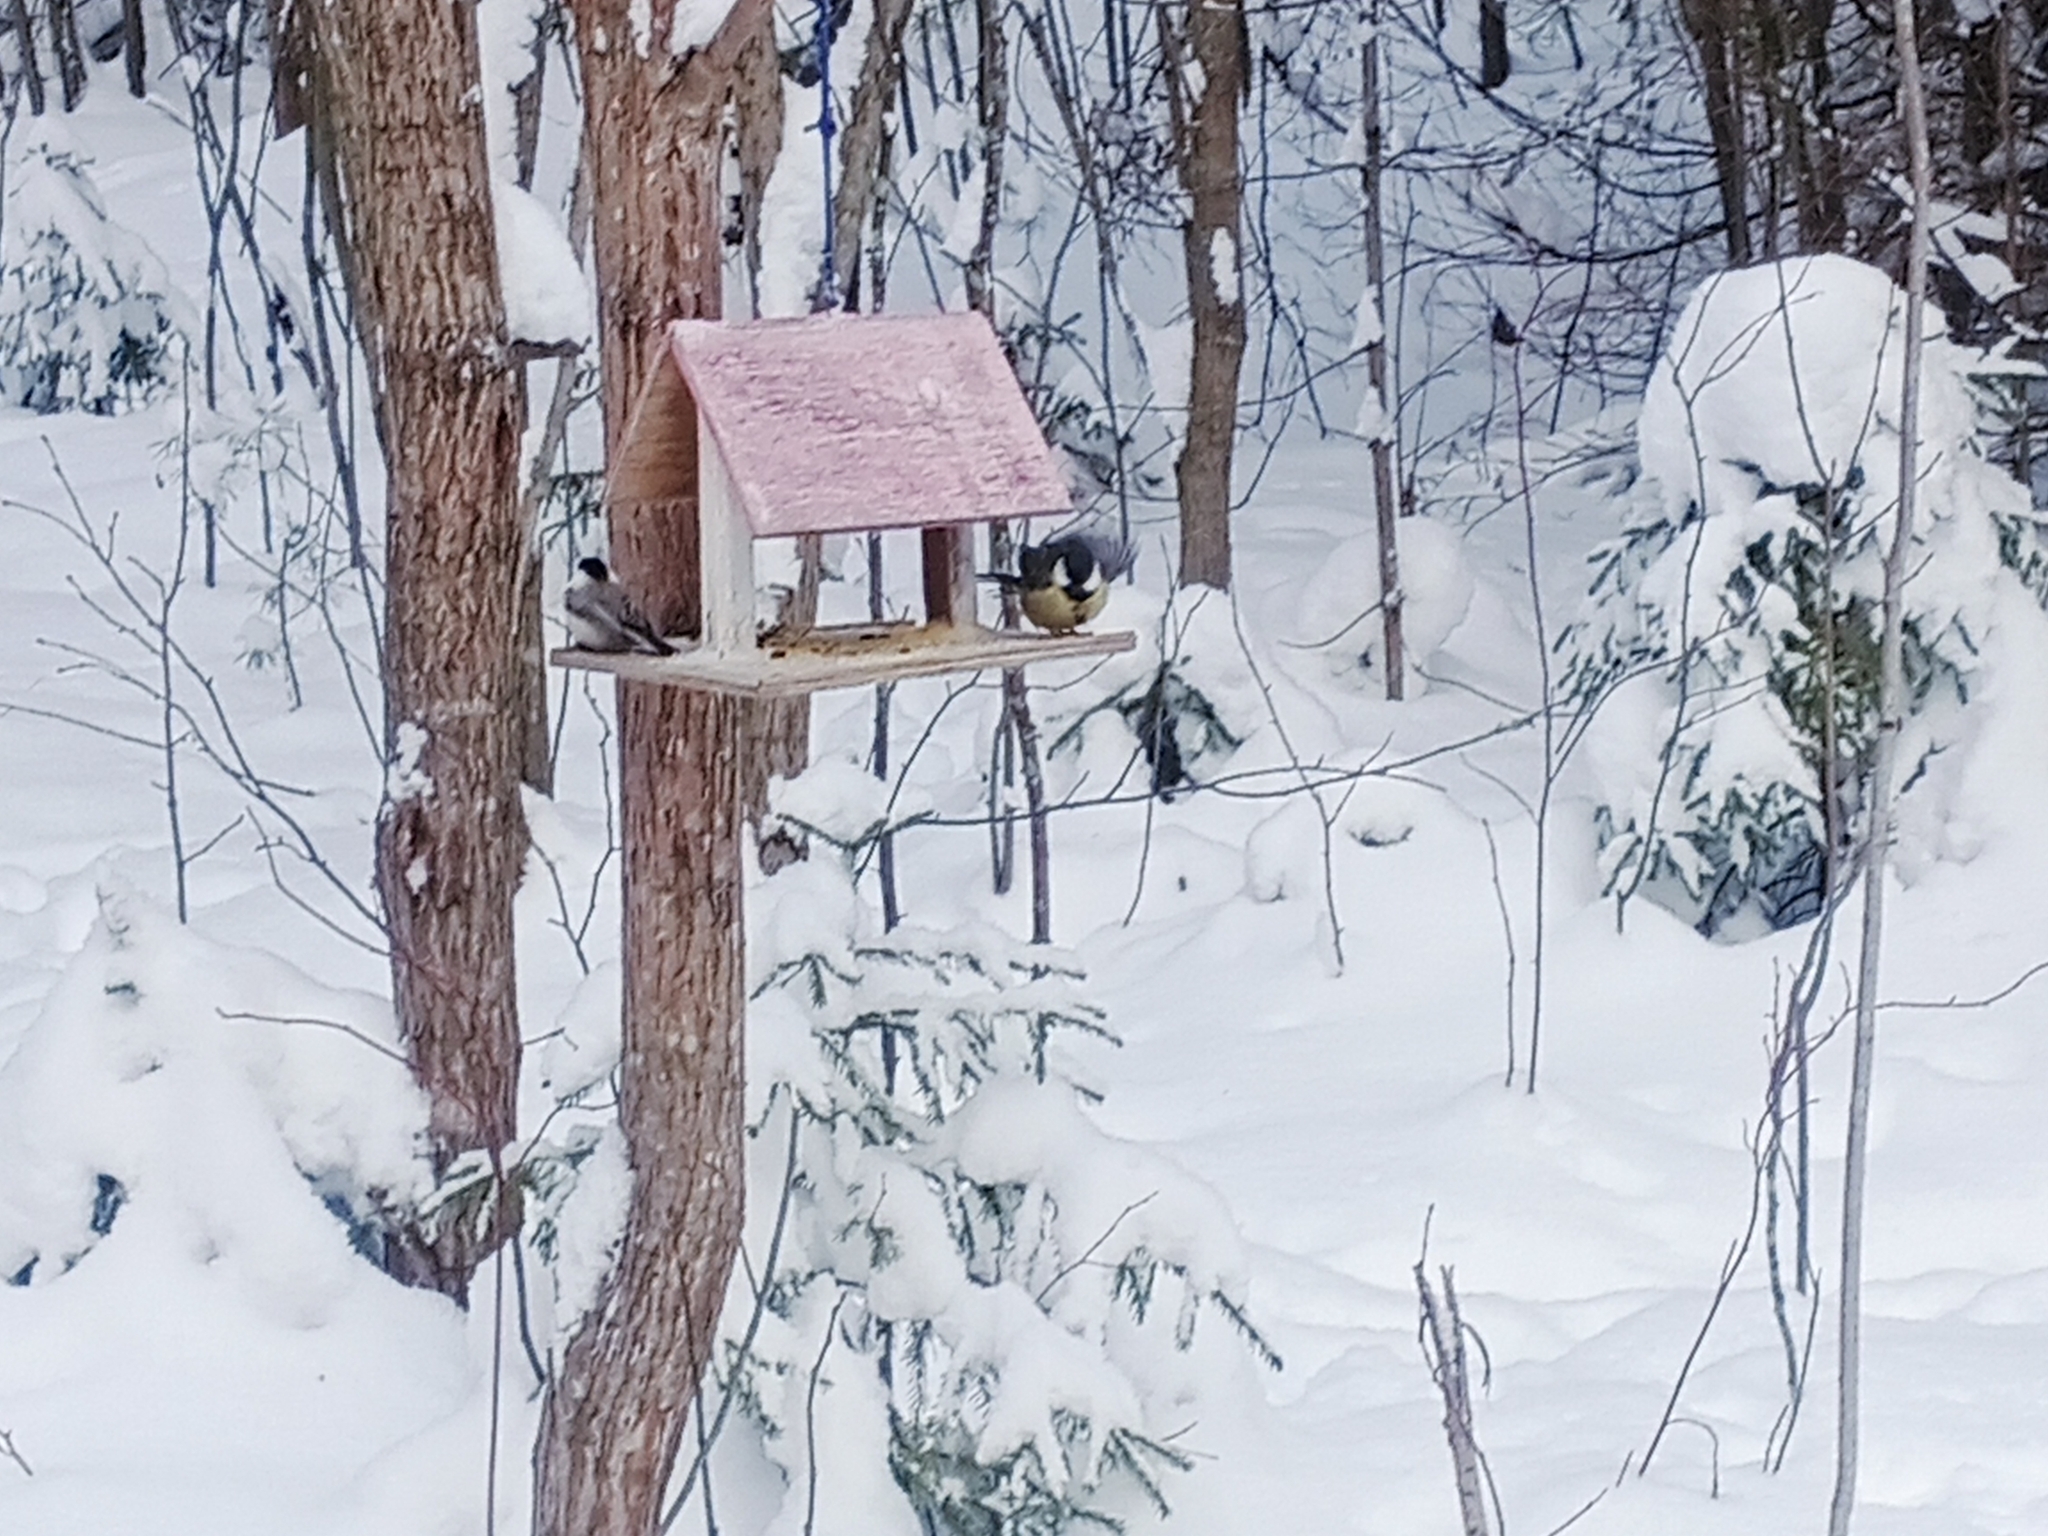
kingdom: Animalia
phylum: Chordata
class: Aves
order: Passeriformes
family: Paridae
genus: Parus
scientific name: Parus major
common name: Great tit
